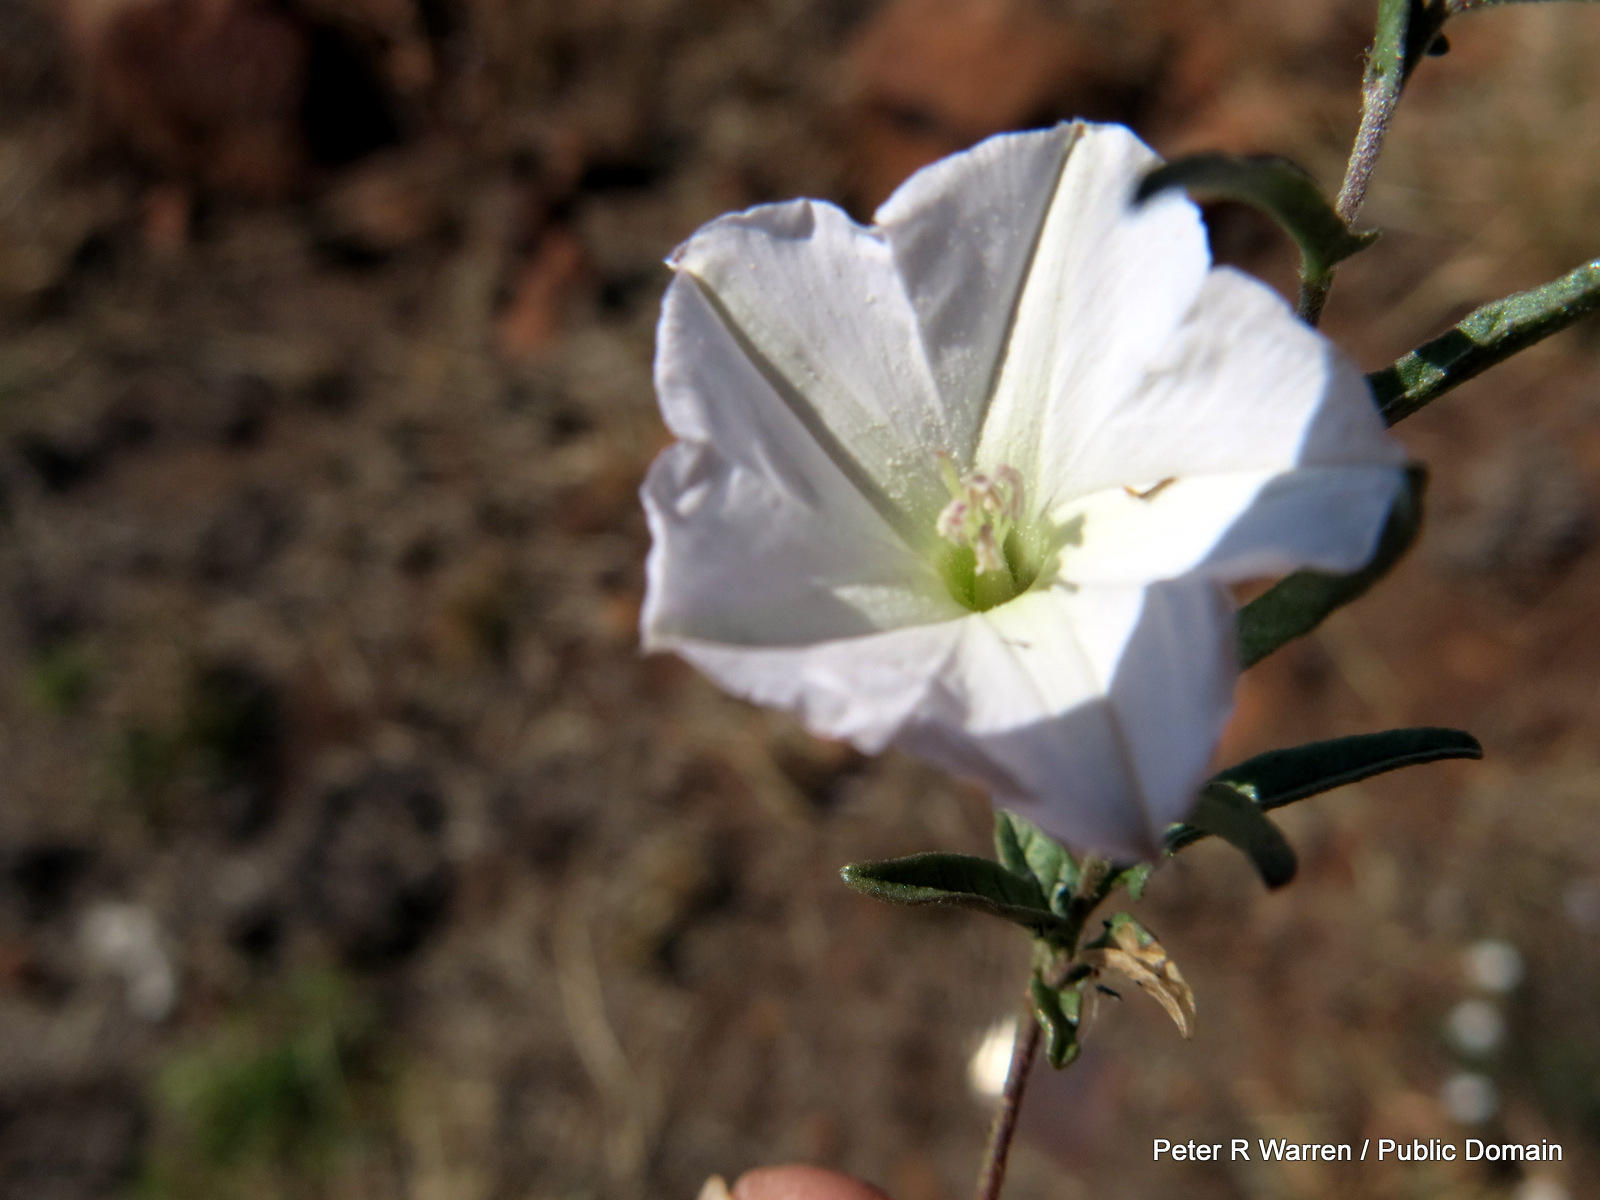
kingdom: Plantae
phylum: Tracheophyta
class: Magnoliopsida
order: Solanales
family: Convolvulaceae
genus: Convolvulus
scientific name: Convolvulus sagittatus
